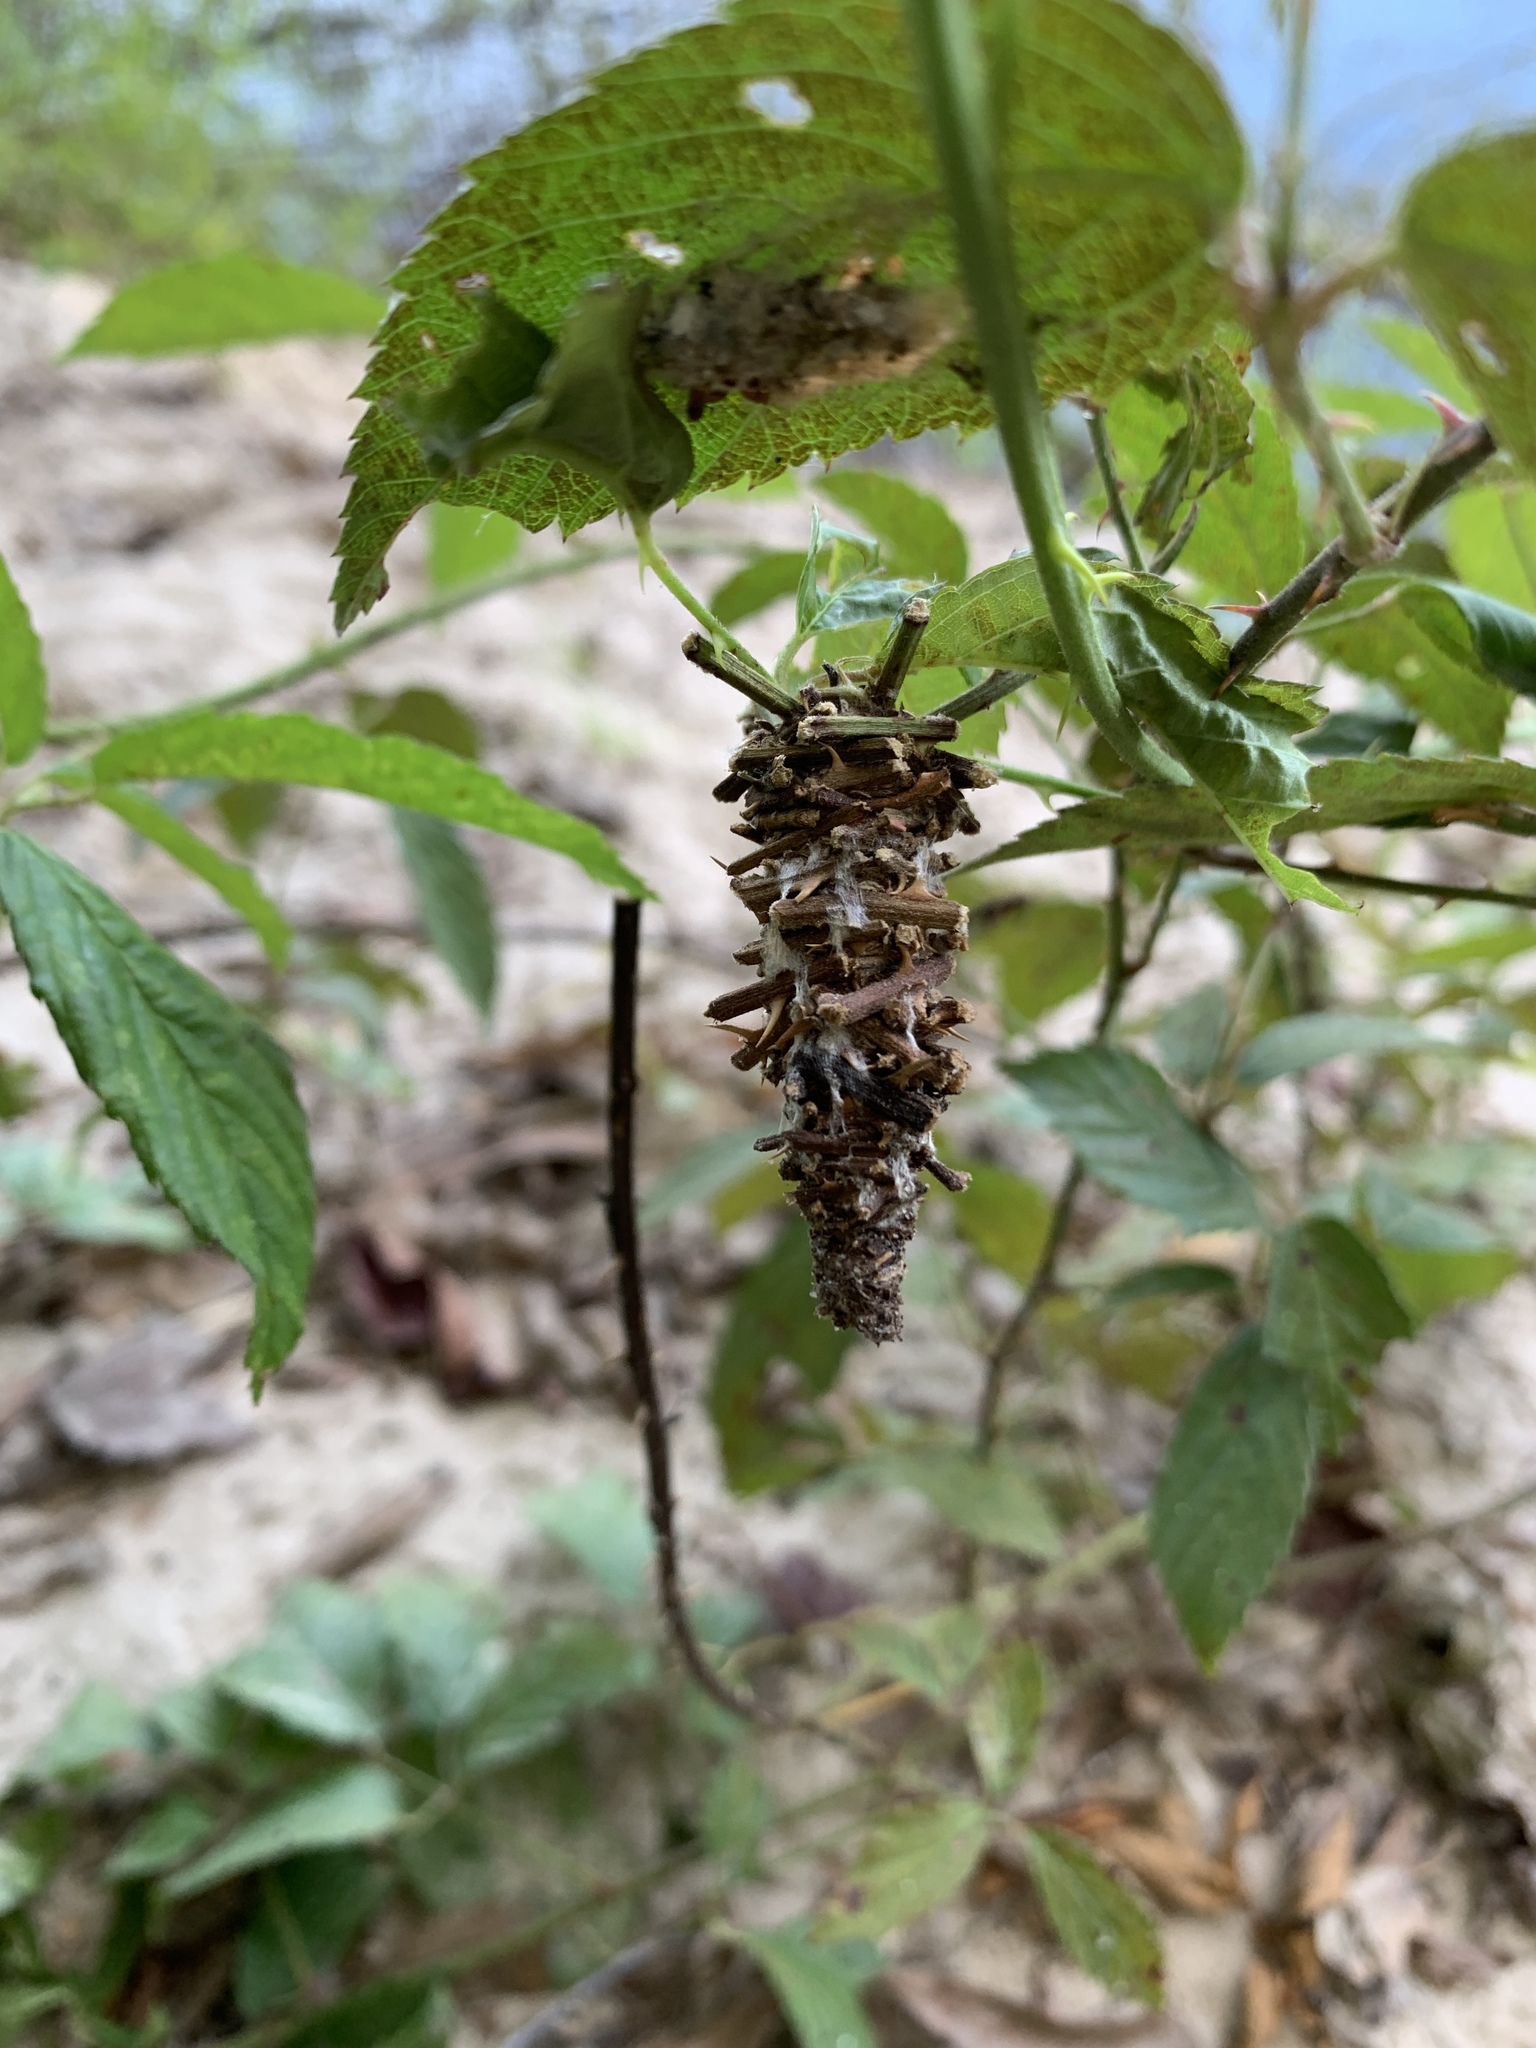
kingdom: Animalia
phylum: Arthropoda
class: Insecta
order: Lepidoptera
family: Psychidae
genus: Oiketicus
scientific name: Oiketicus
